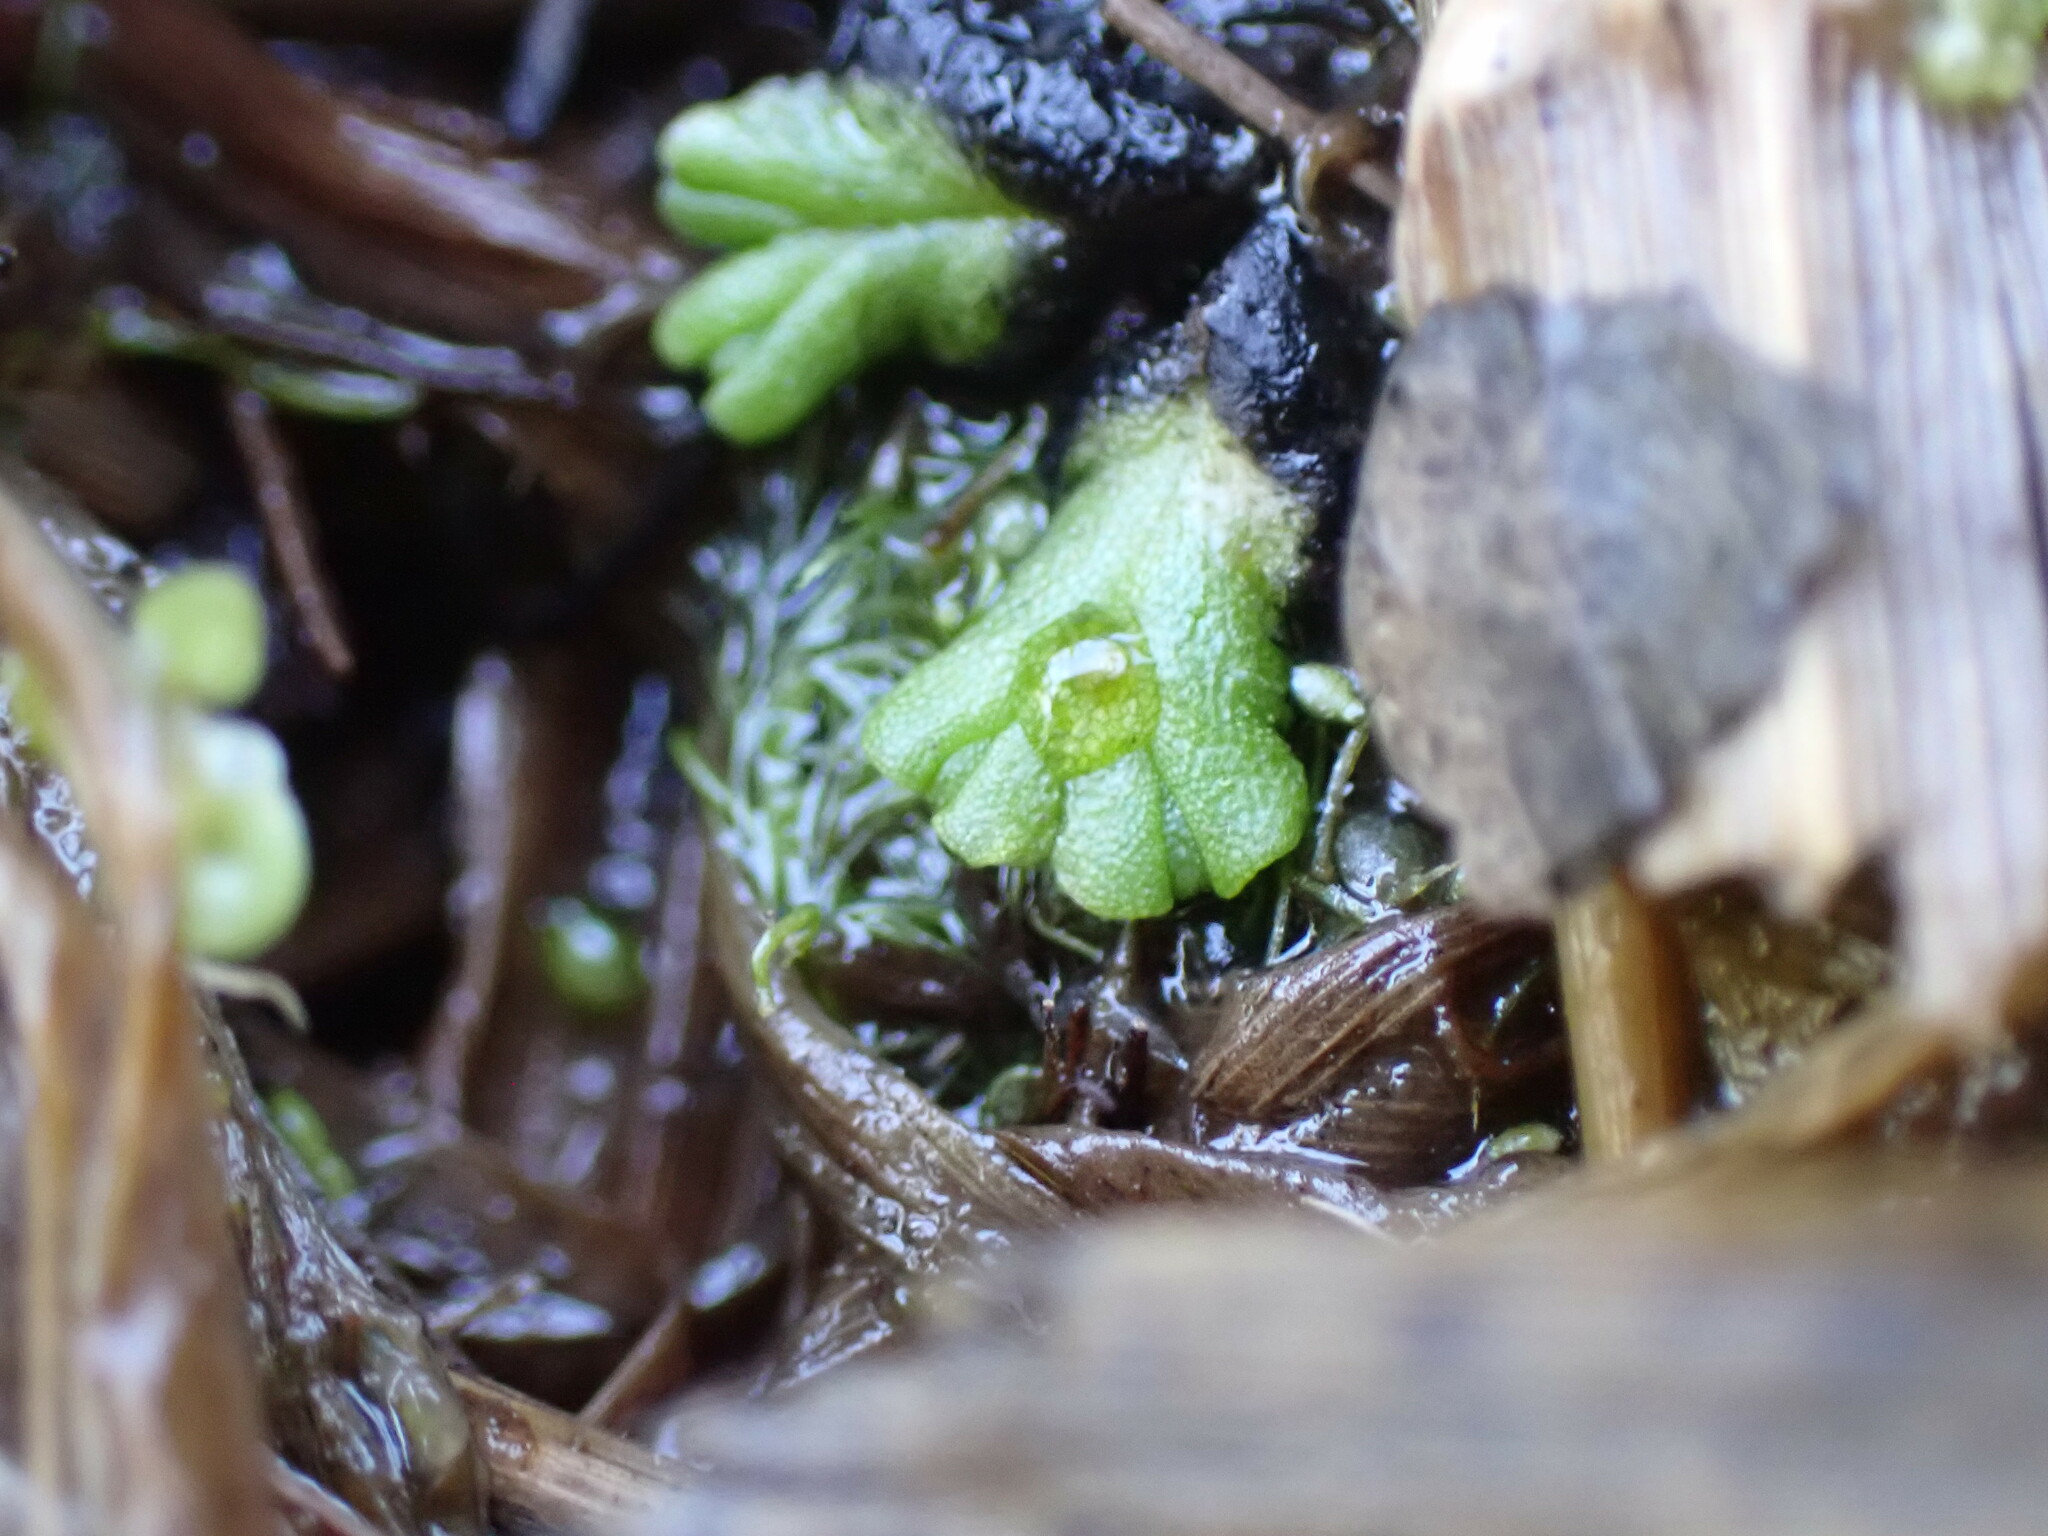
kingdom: Plantae
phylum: Marchantiophyta
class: Marchantiopsida
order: Marchantiales
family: Ricciaceae
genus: Ricciocarpos
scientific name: Ricciocarpos natans
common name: Purple-fringed liverwort
